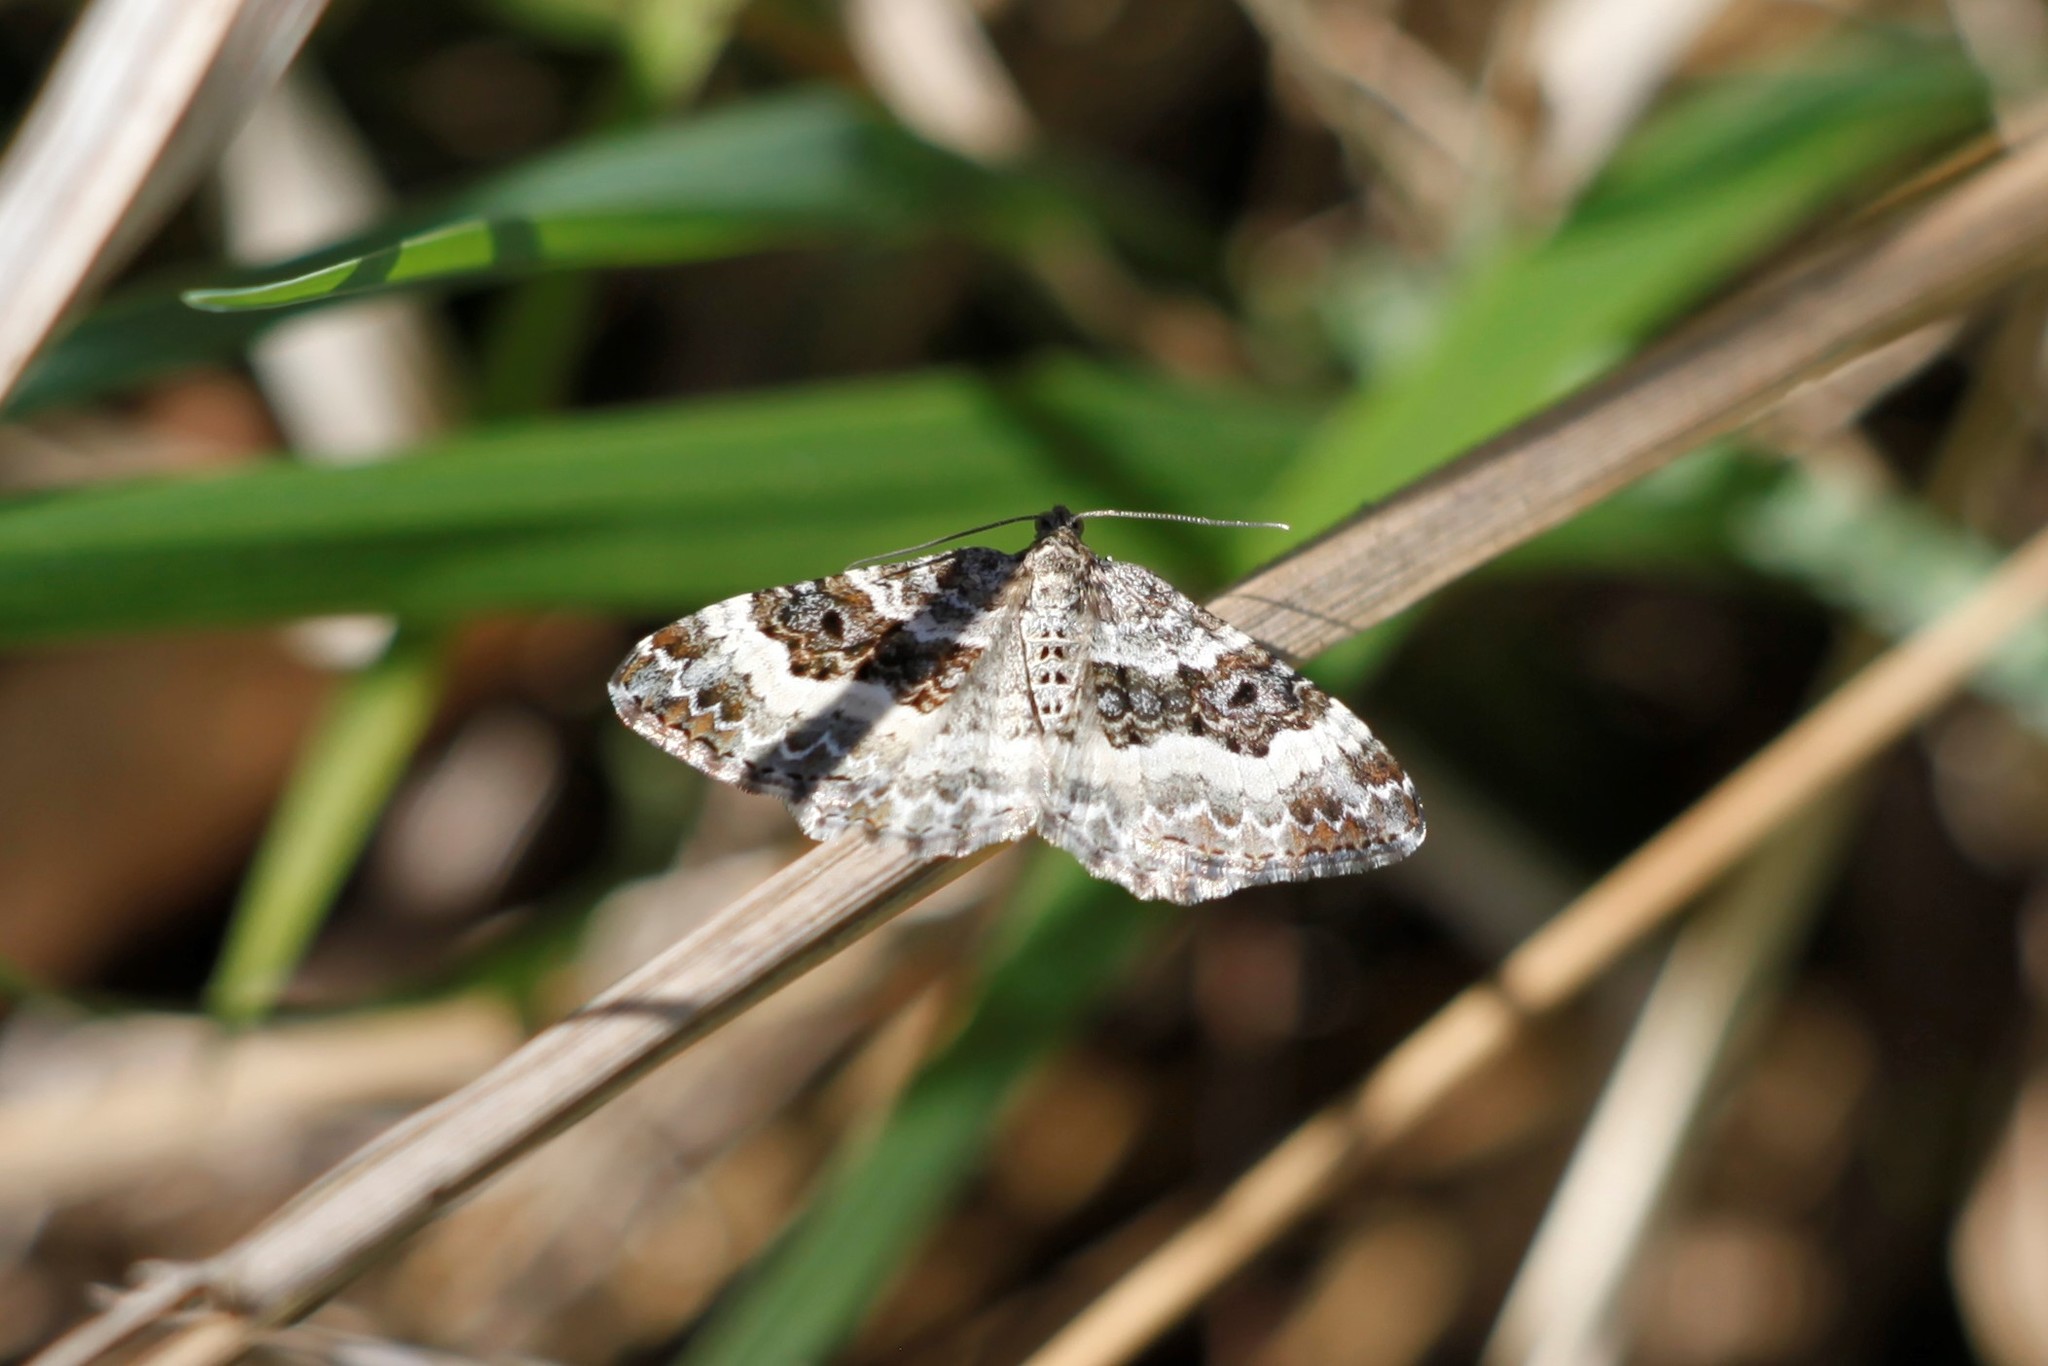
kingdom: Animalia
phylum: Arthropoda
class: Insecta
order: Lepidoptera
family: Geometridae
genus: Epirrhoe
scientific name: Epirrhoe alternata
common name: Common carpet
